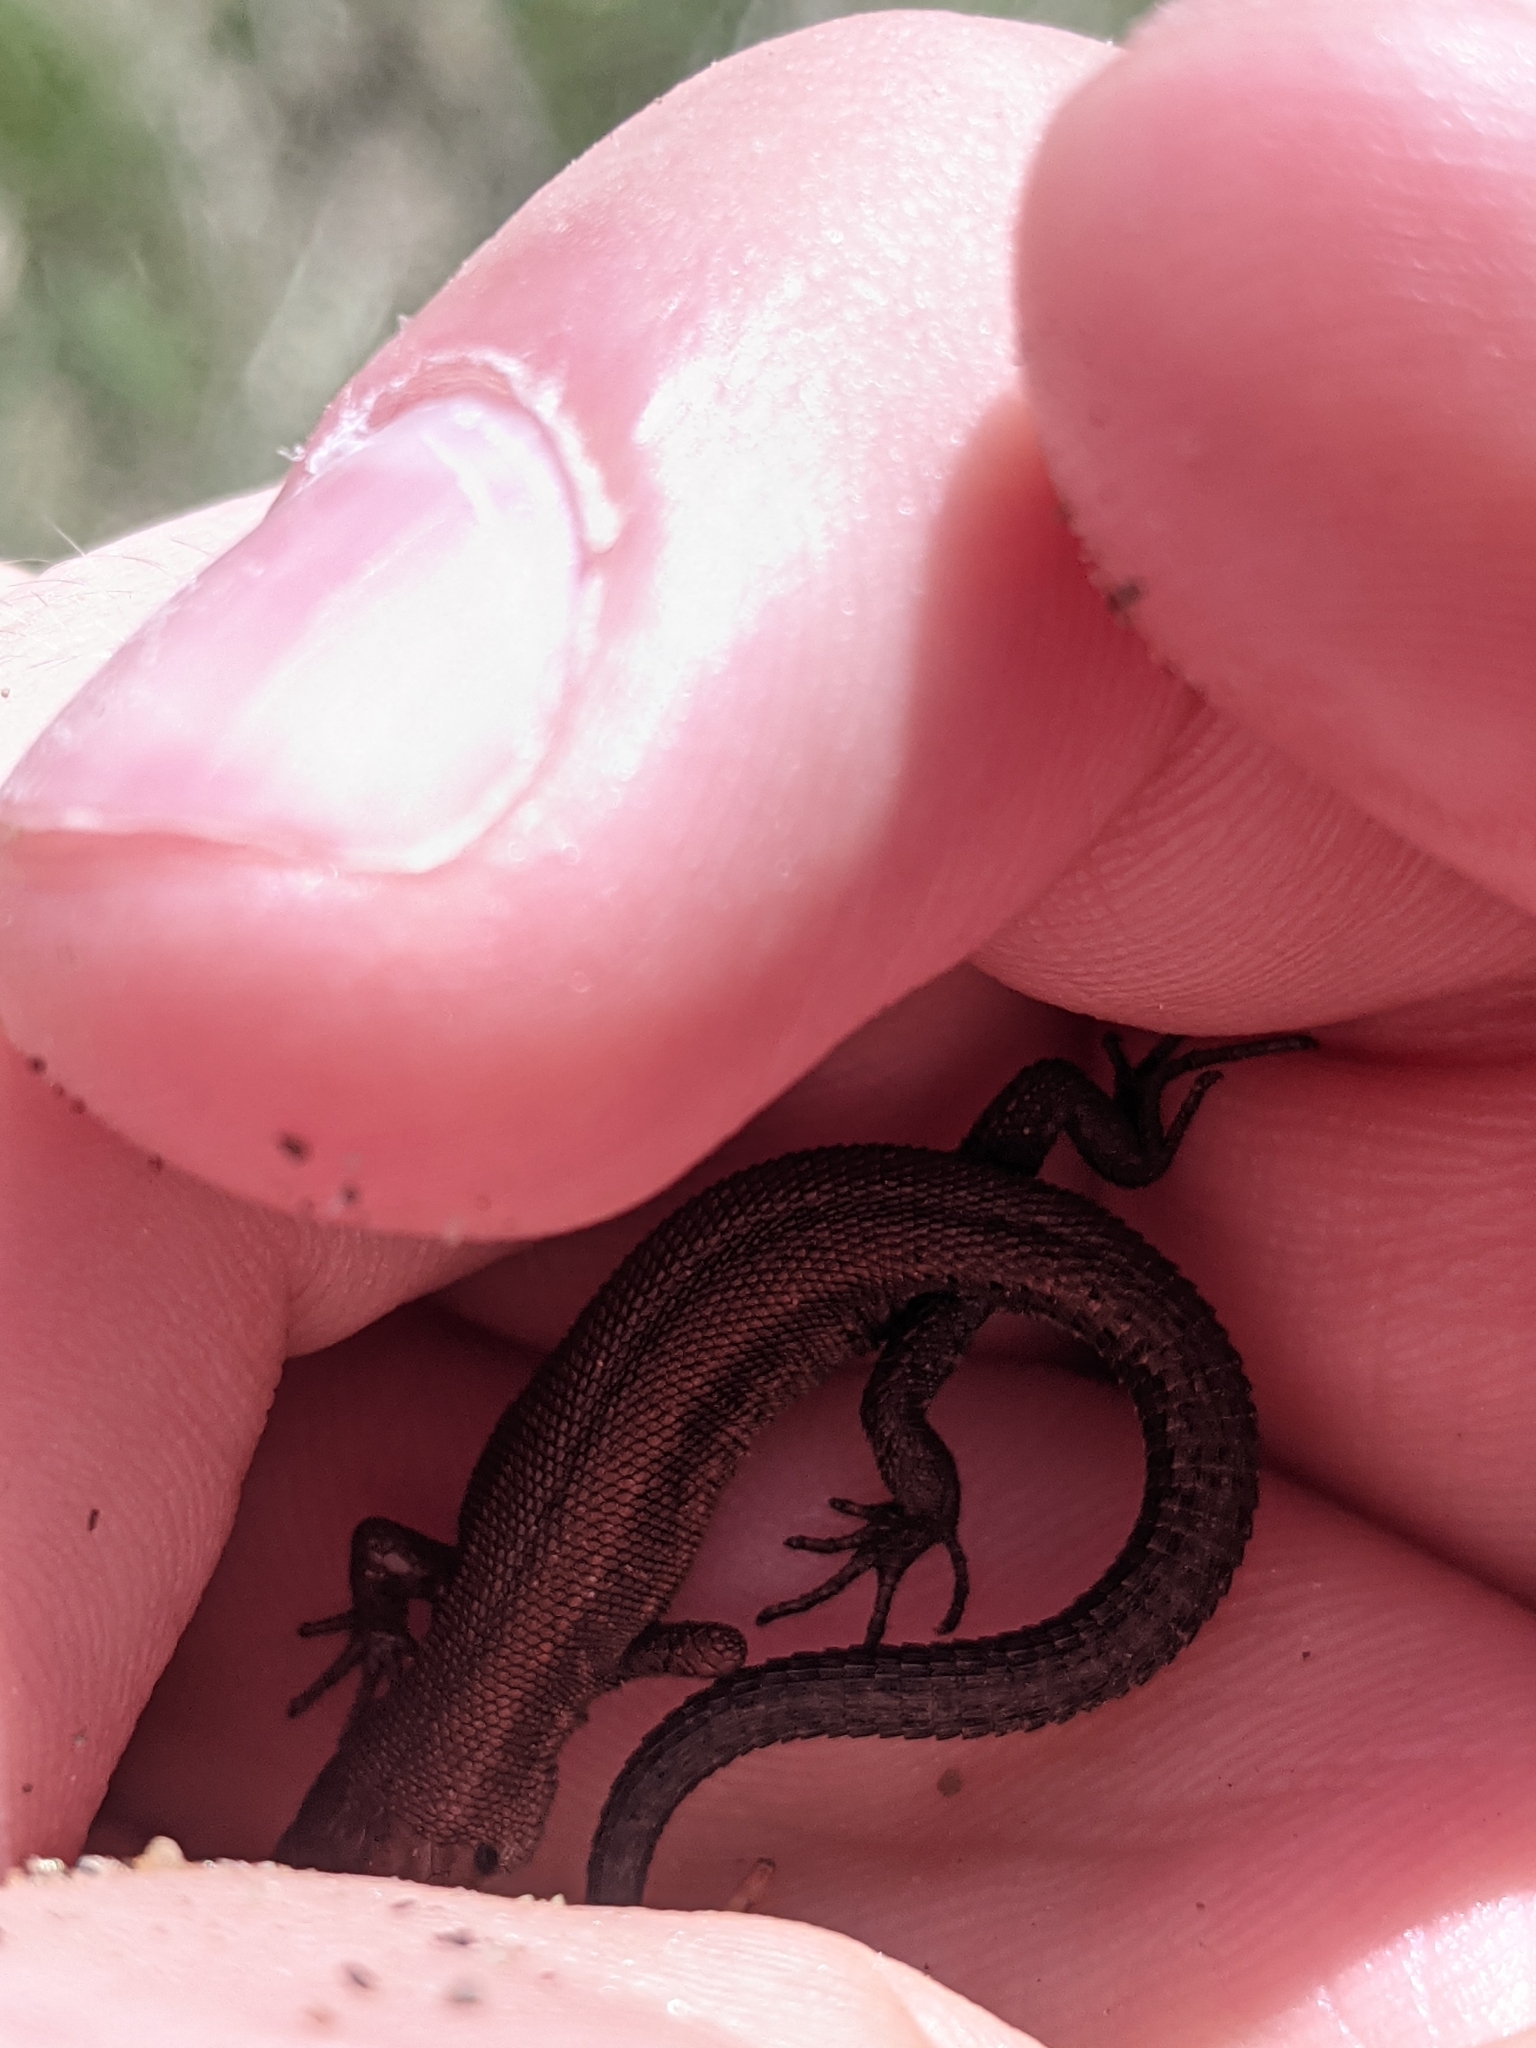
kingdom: Animalia
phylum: Chordata
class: Squamata
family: Lacertidae
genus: Zootoca
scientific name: Zootoca vivipara
